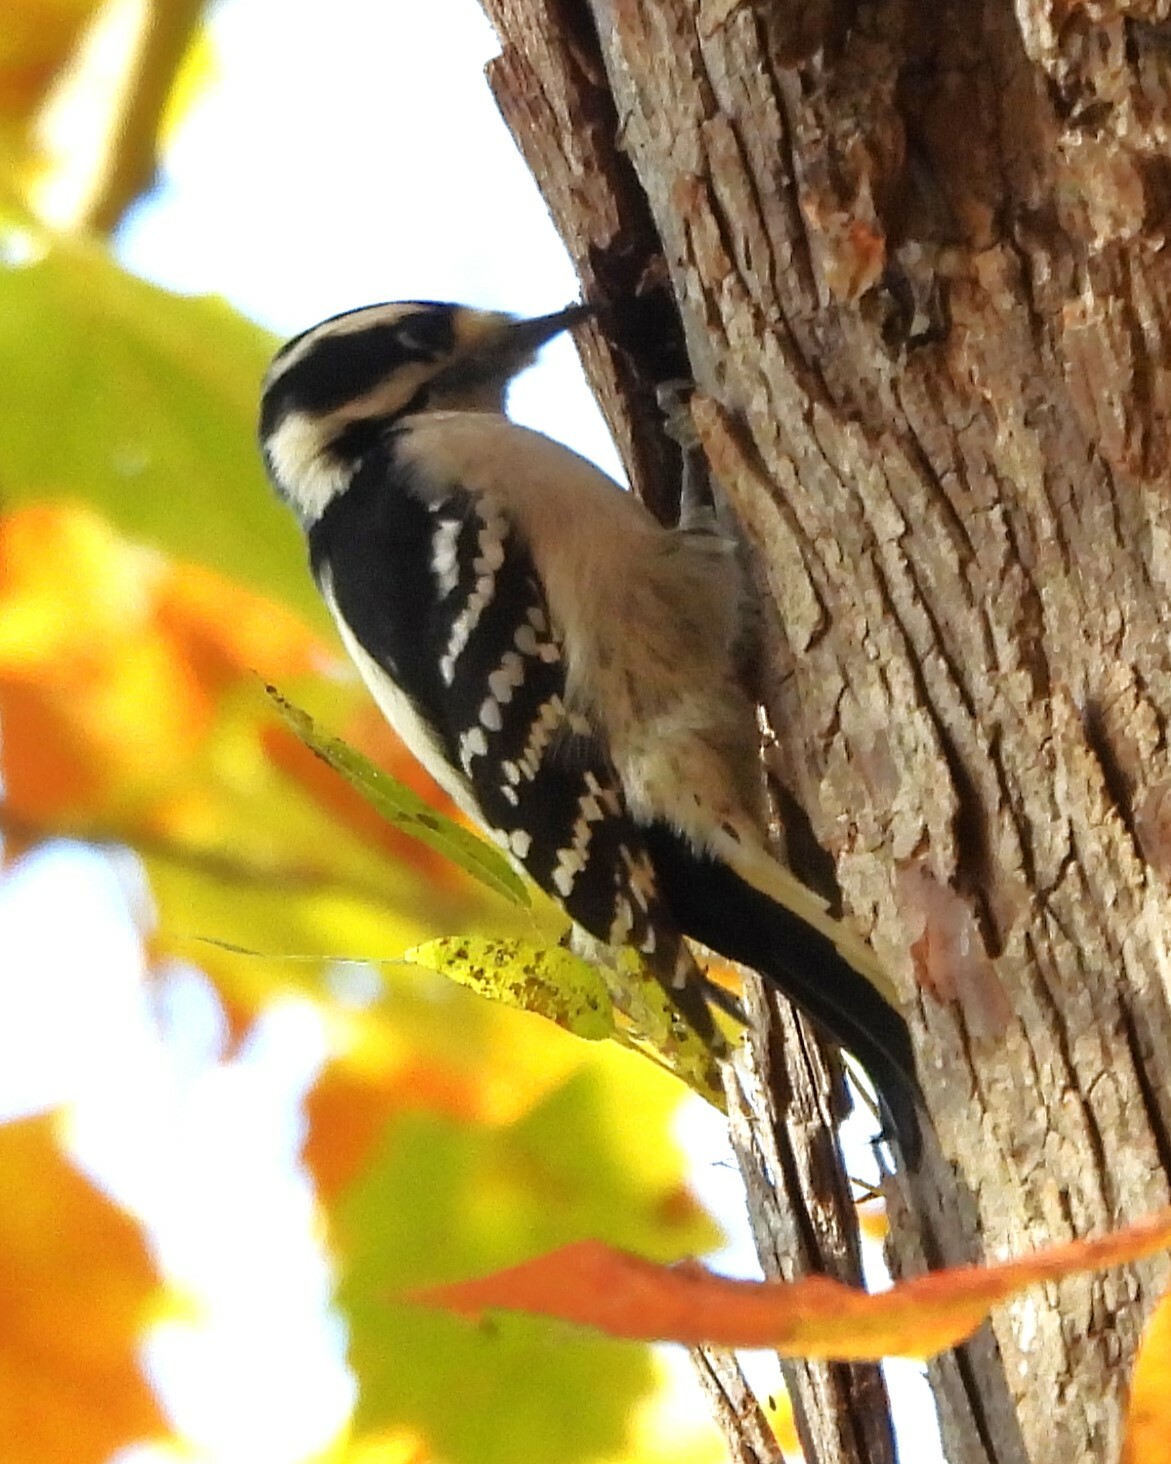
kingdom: Animalia
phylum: Chordata
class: Aves
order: Piciformes
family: Picidae
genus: Dryobates
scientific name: Dryobates pubescens
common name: Downy woodpecker
